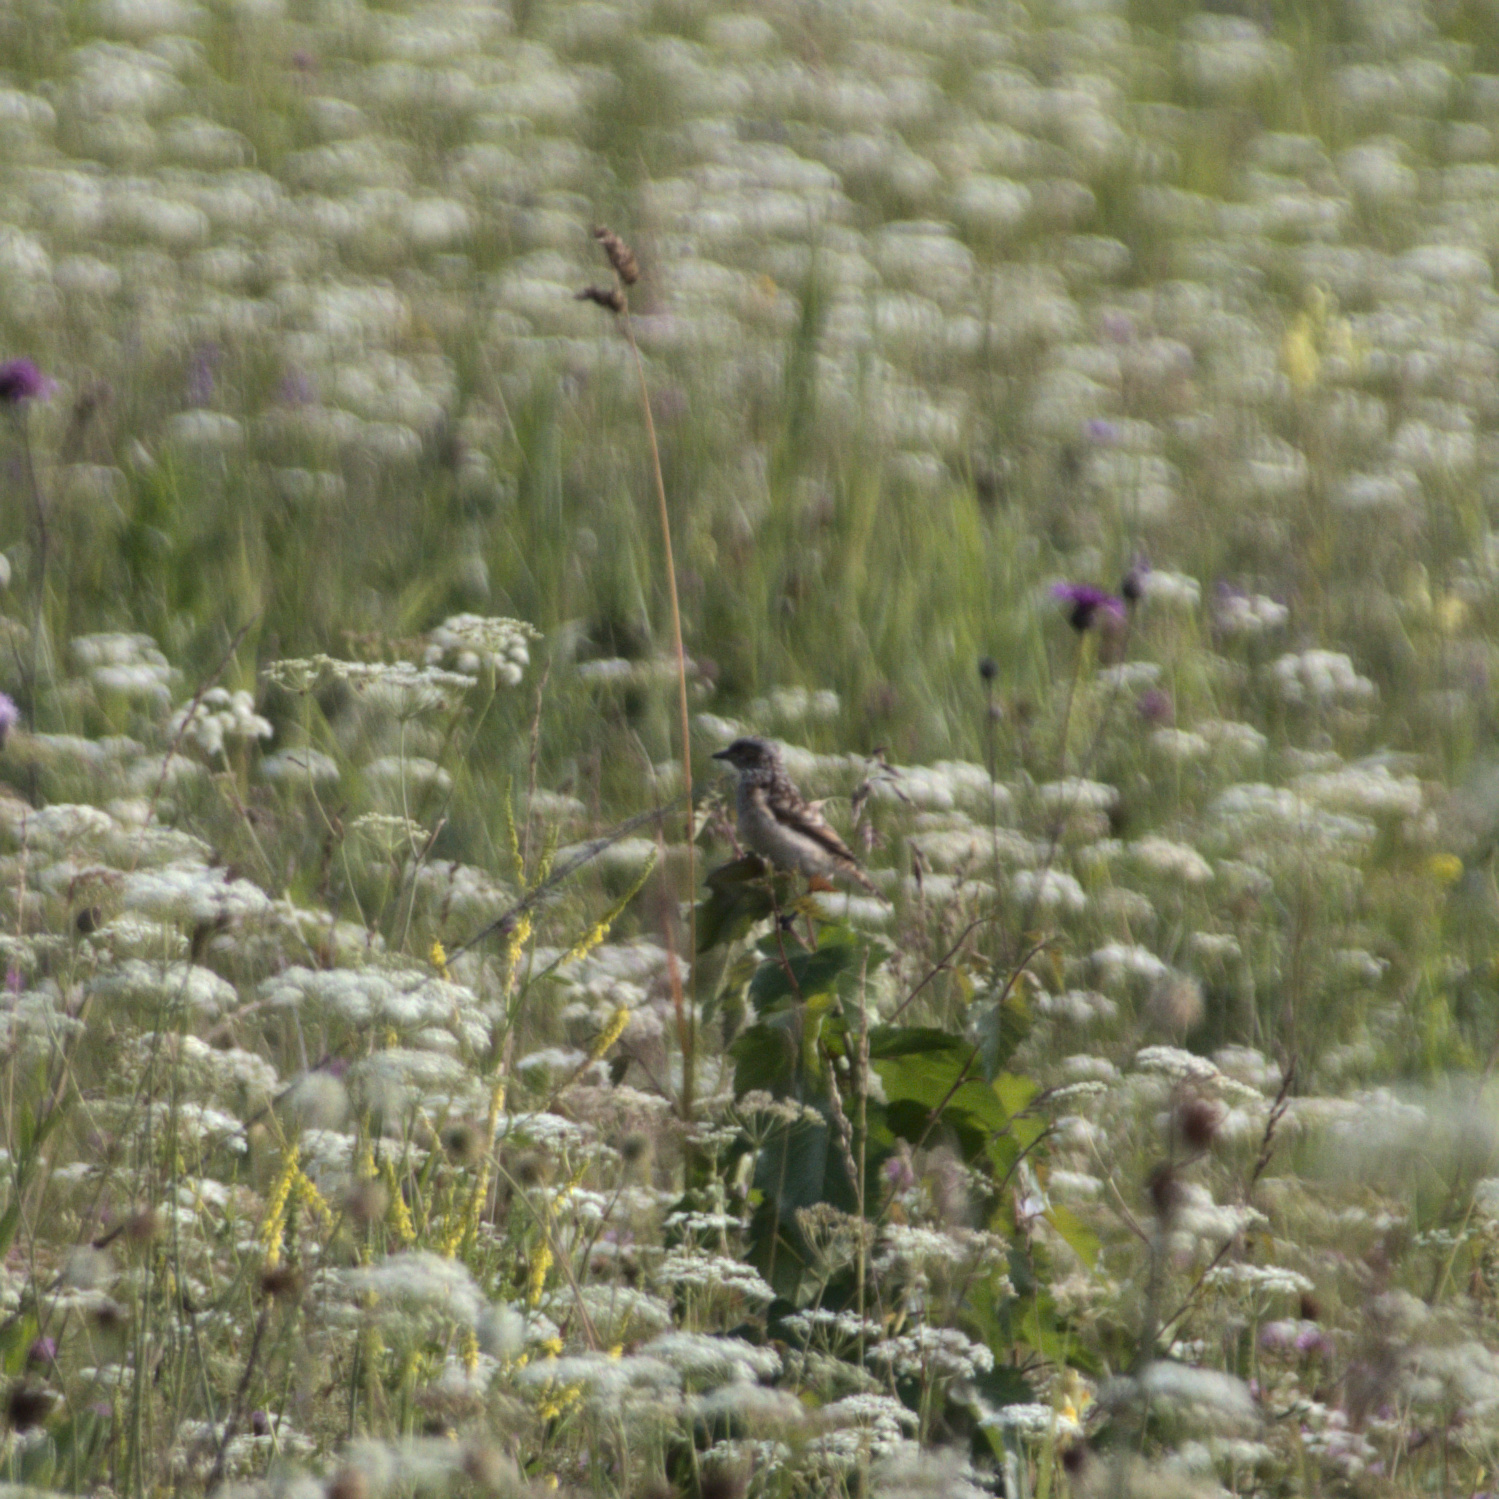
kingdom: Animalia
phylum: Chordata
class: Aves
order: Passeriformes
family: Muscicapidae
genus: Saxicola
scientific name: Saxicola maurus
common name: Siberian stonechat
